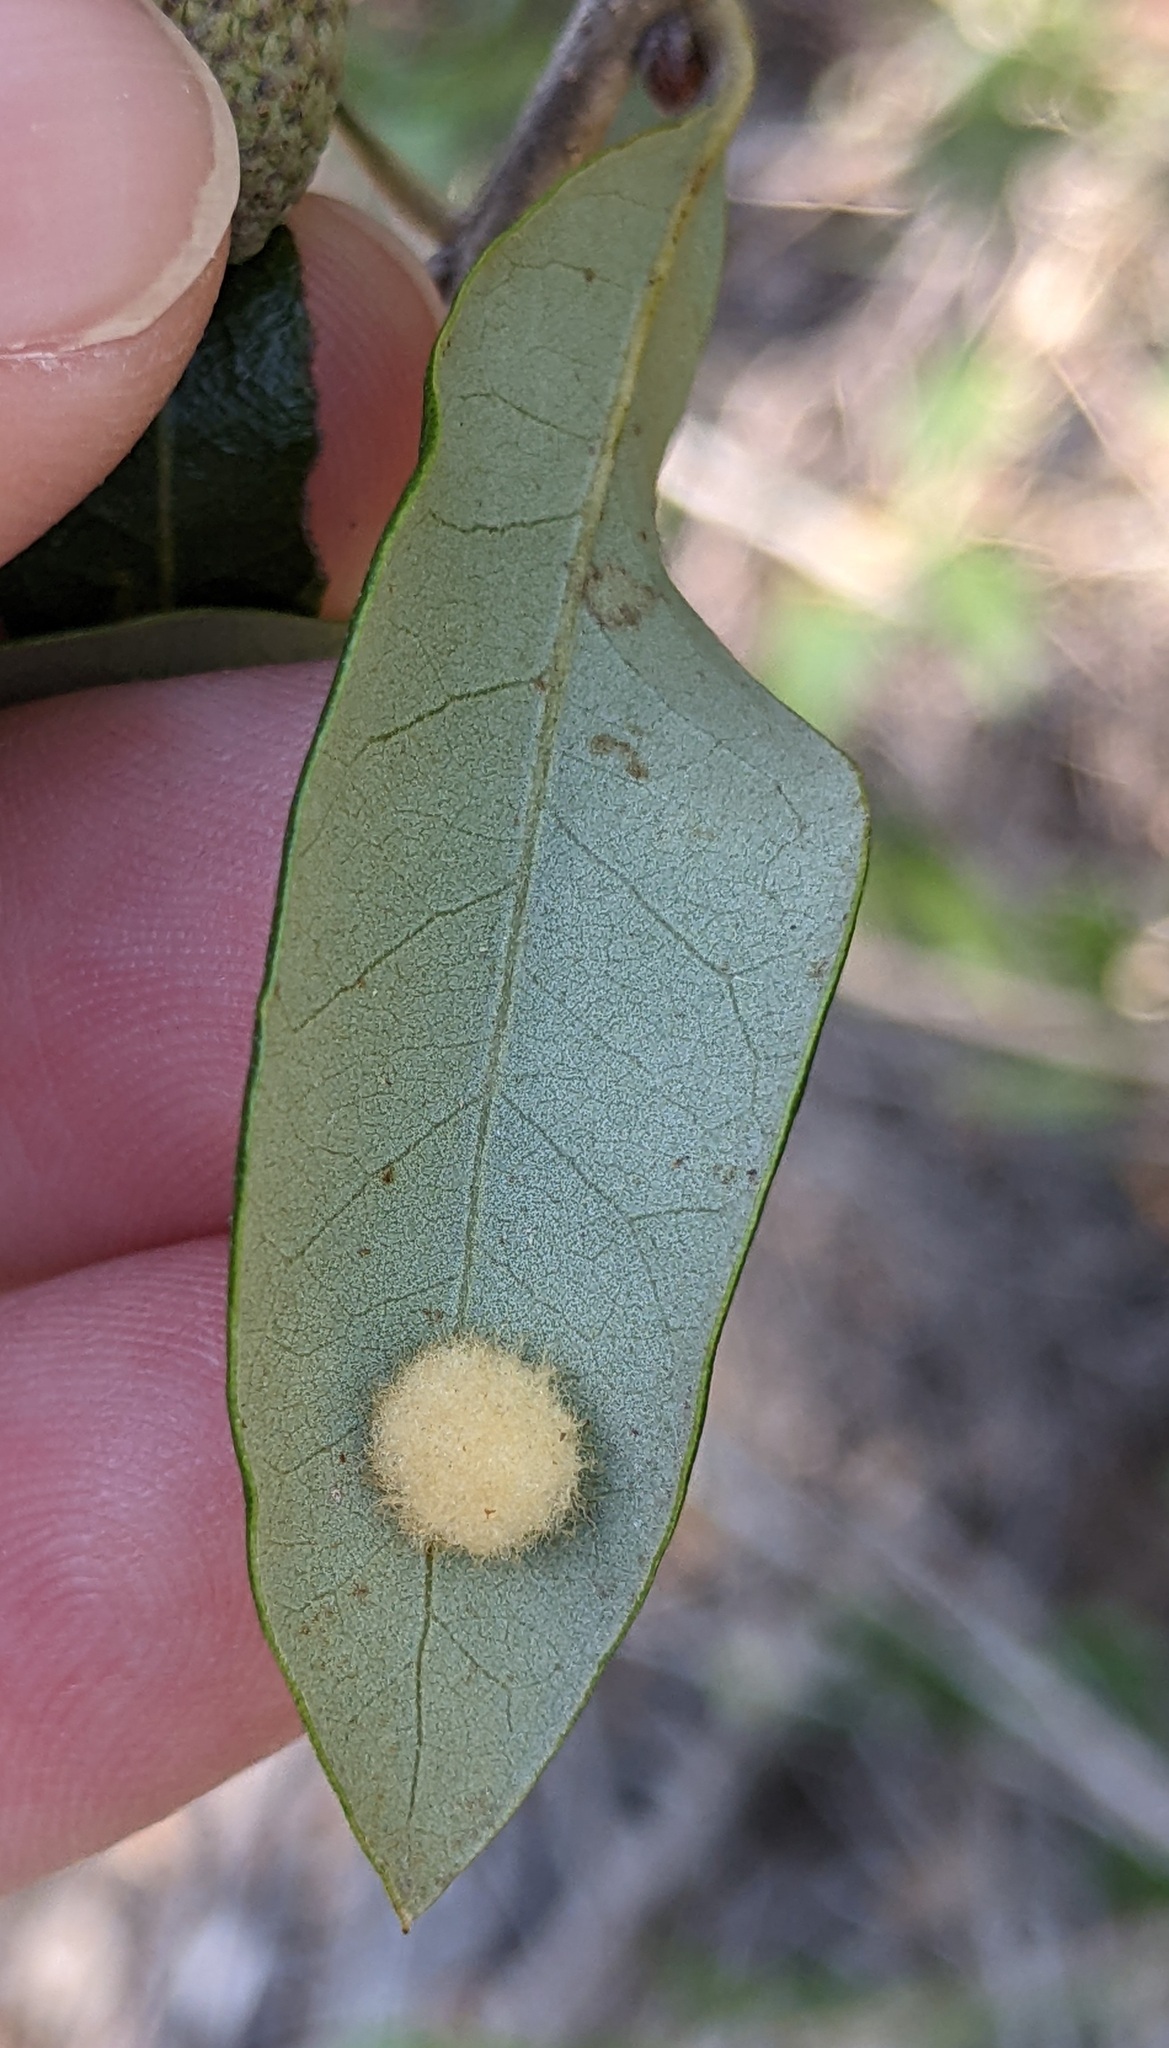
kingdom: Animalia
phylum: Arthropoda
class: Insecta
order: Hymenoptera
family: Cynipidae
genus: Andricus
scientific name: Andricus Druon quercuslanigerum
